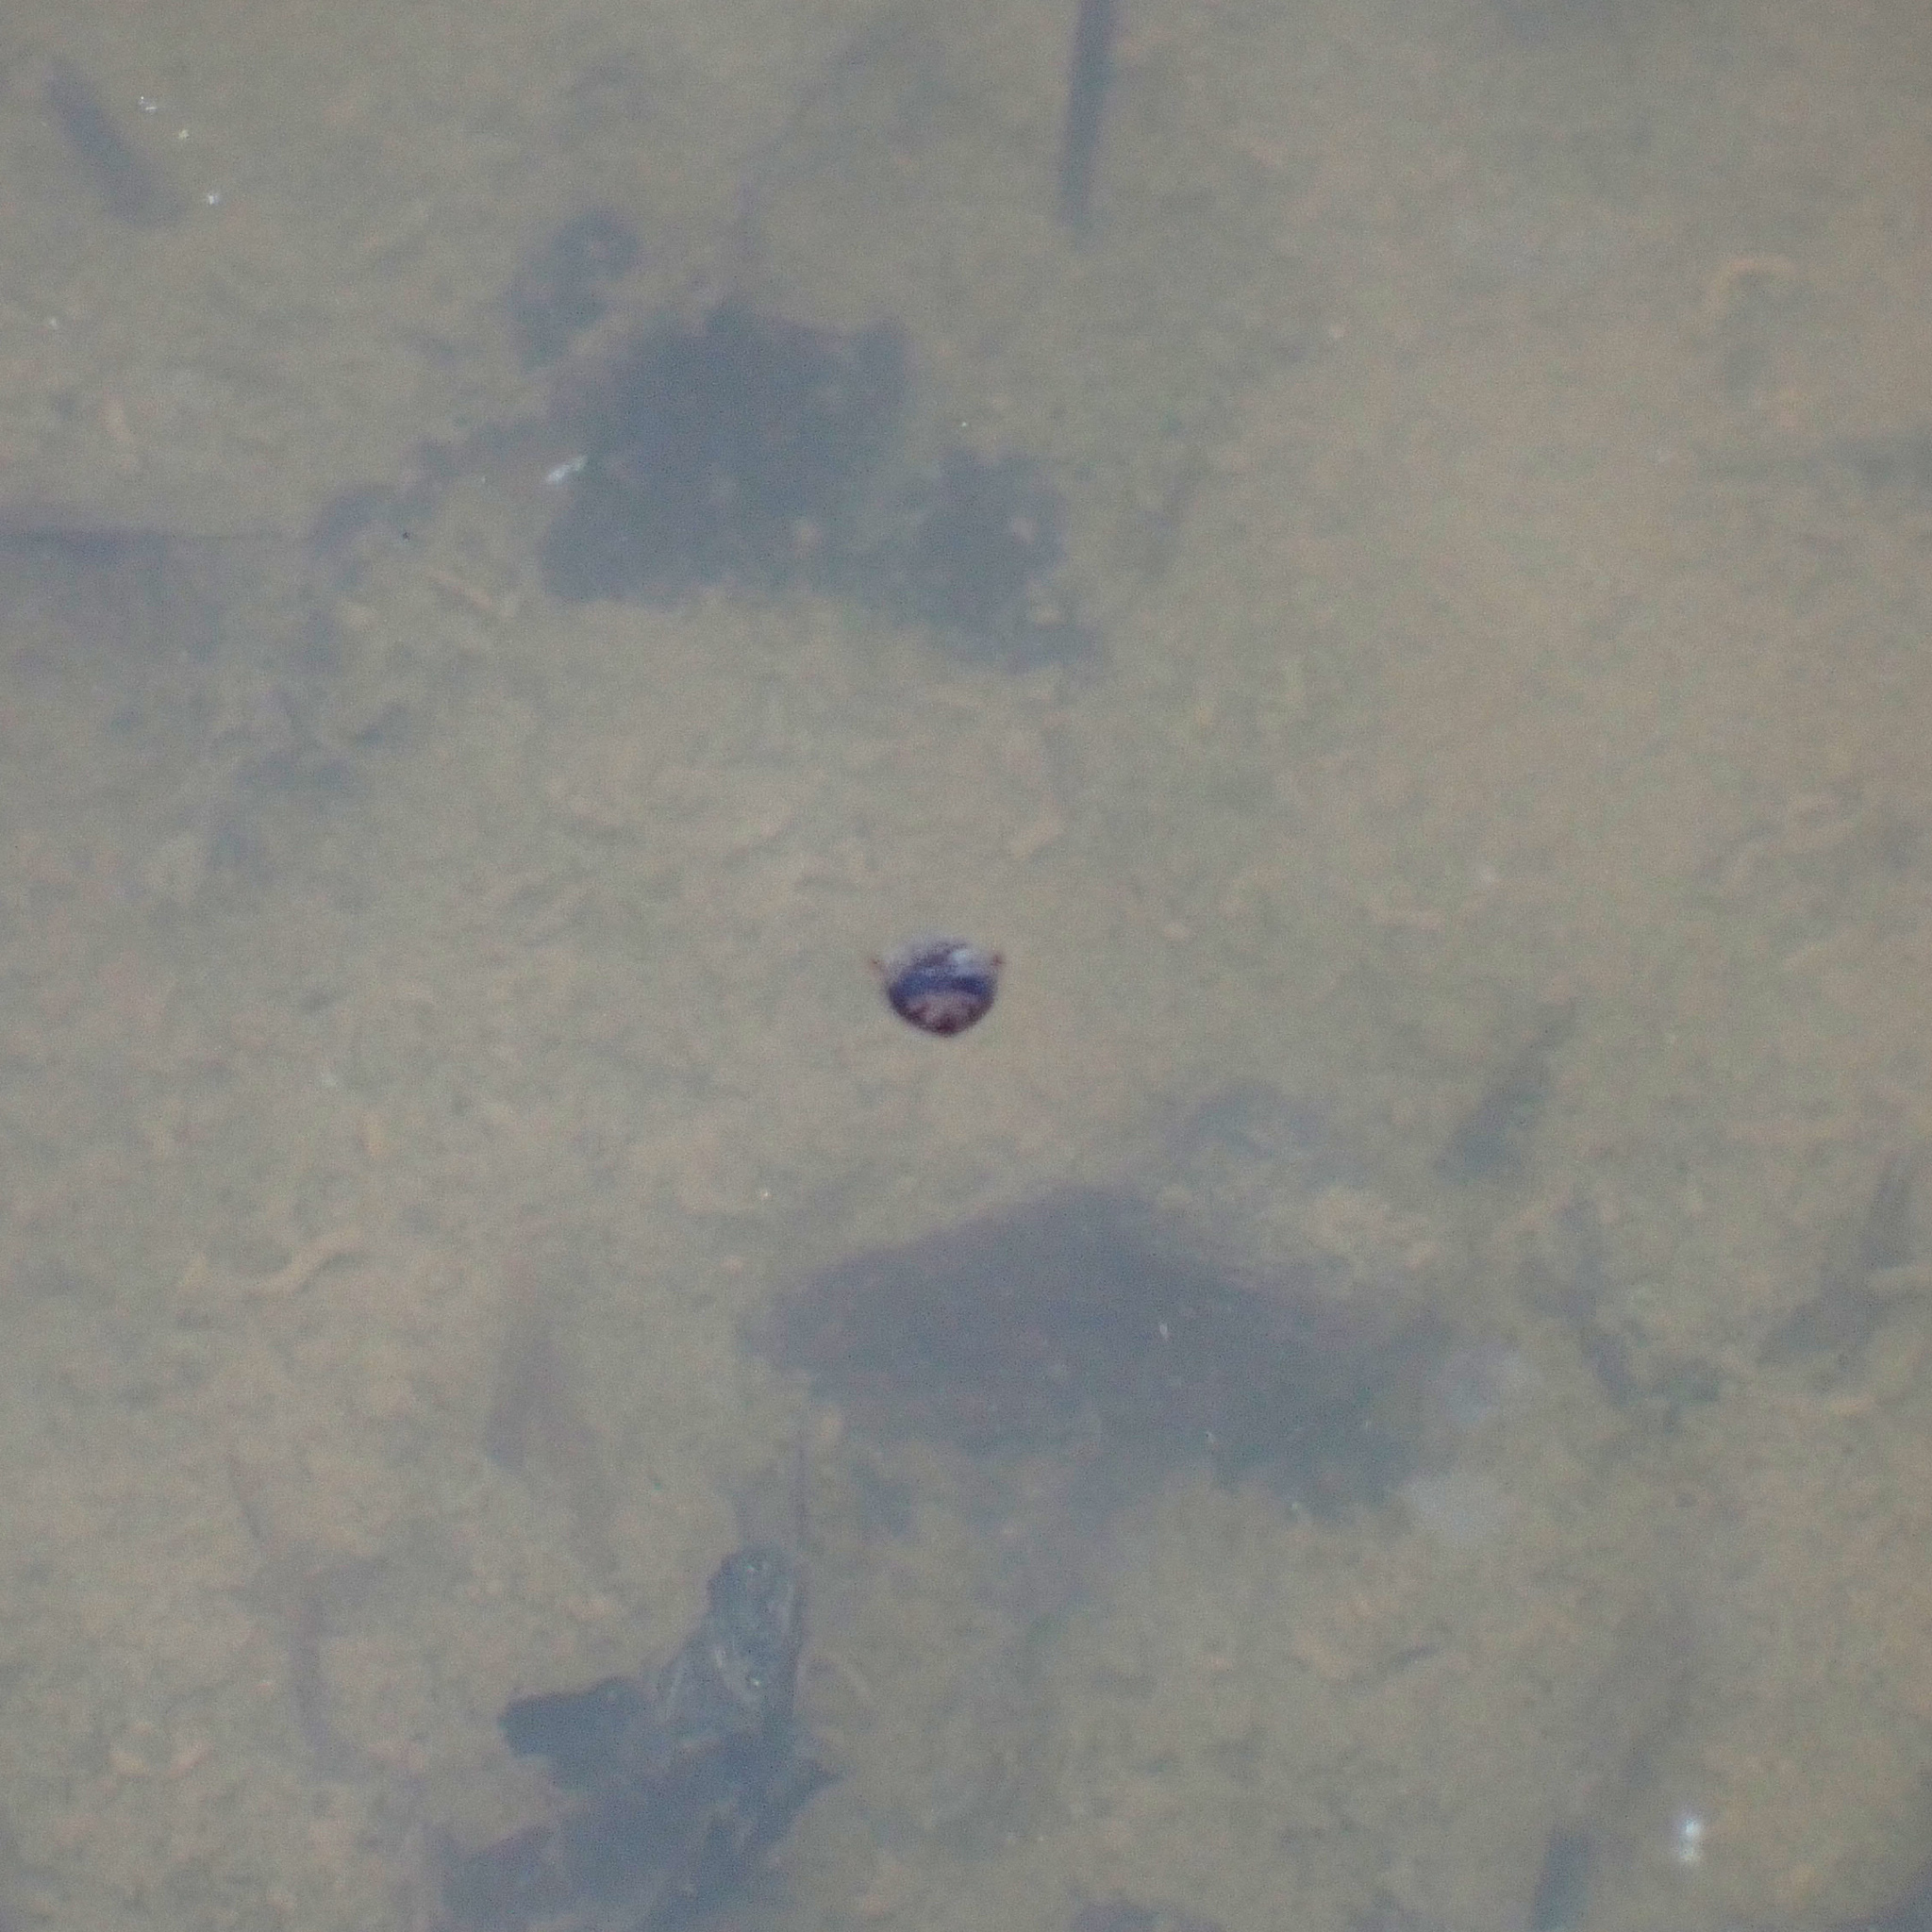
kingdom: Animalia
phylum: Arthropoda
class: Insecta
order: Coleoptera
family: Dytiscidae
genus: Laccophilus
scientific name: Laccophilus fasciatus
